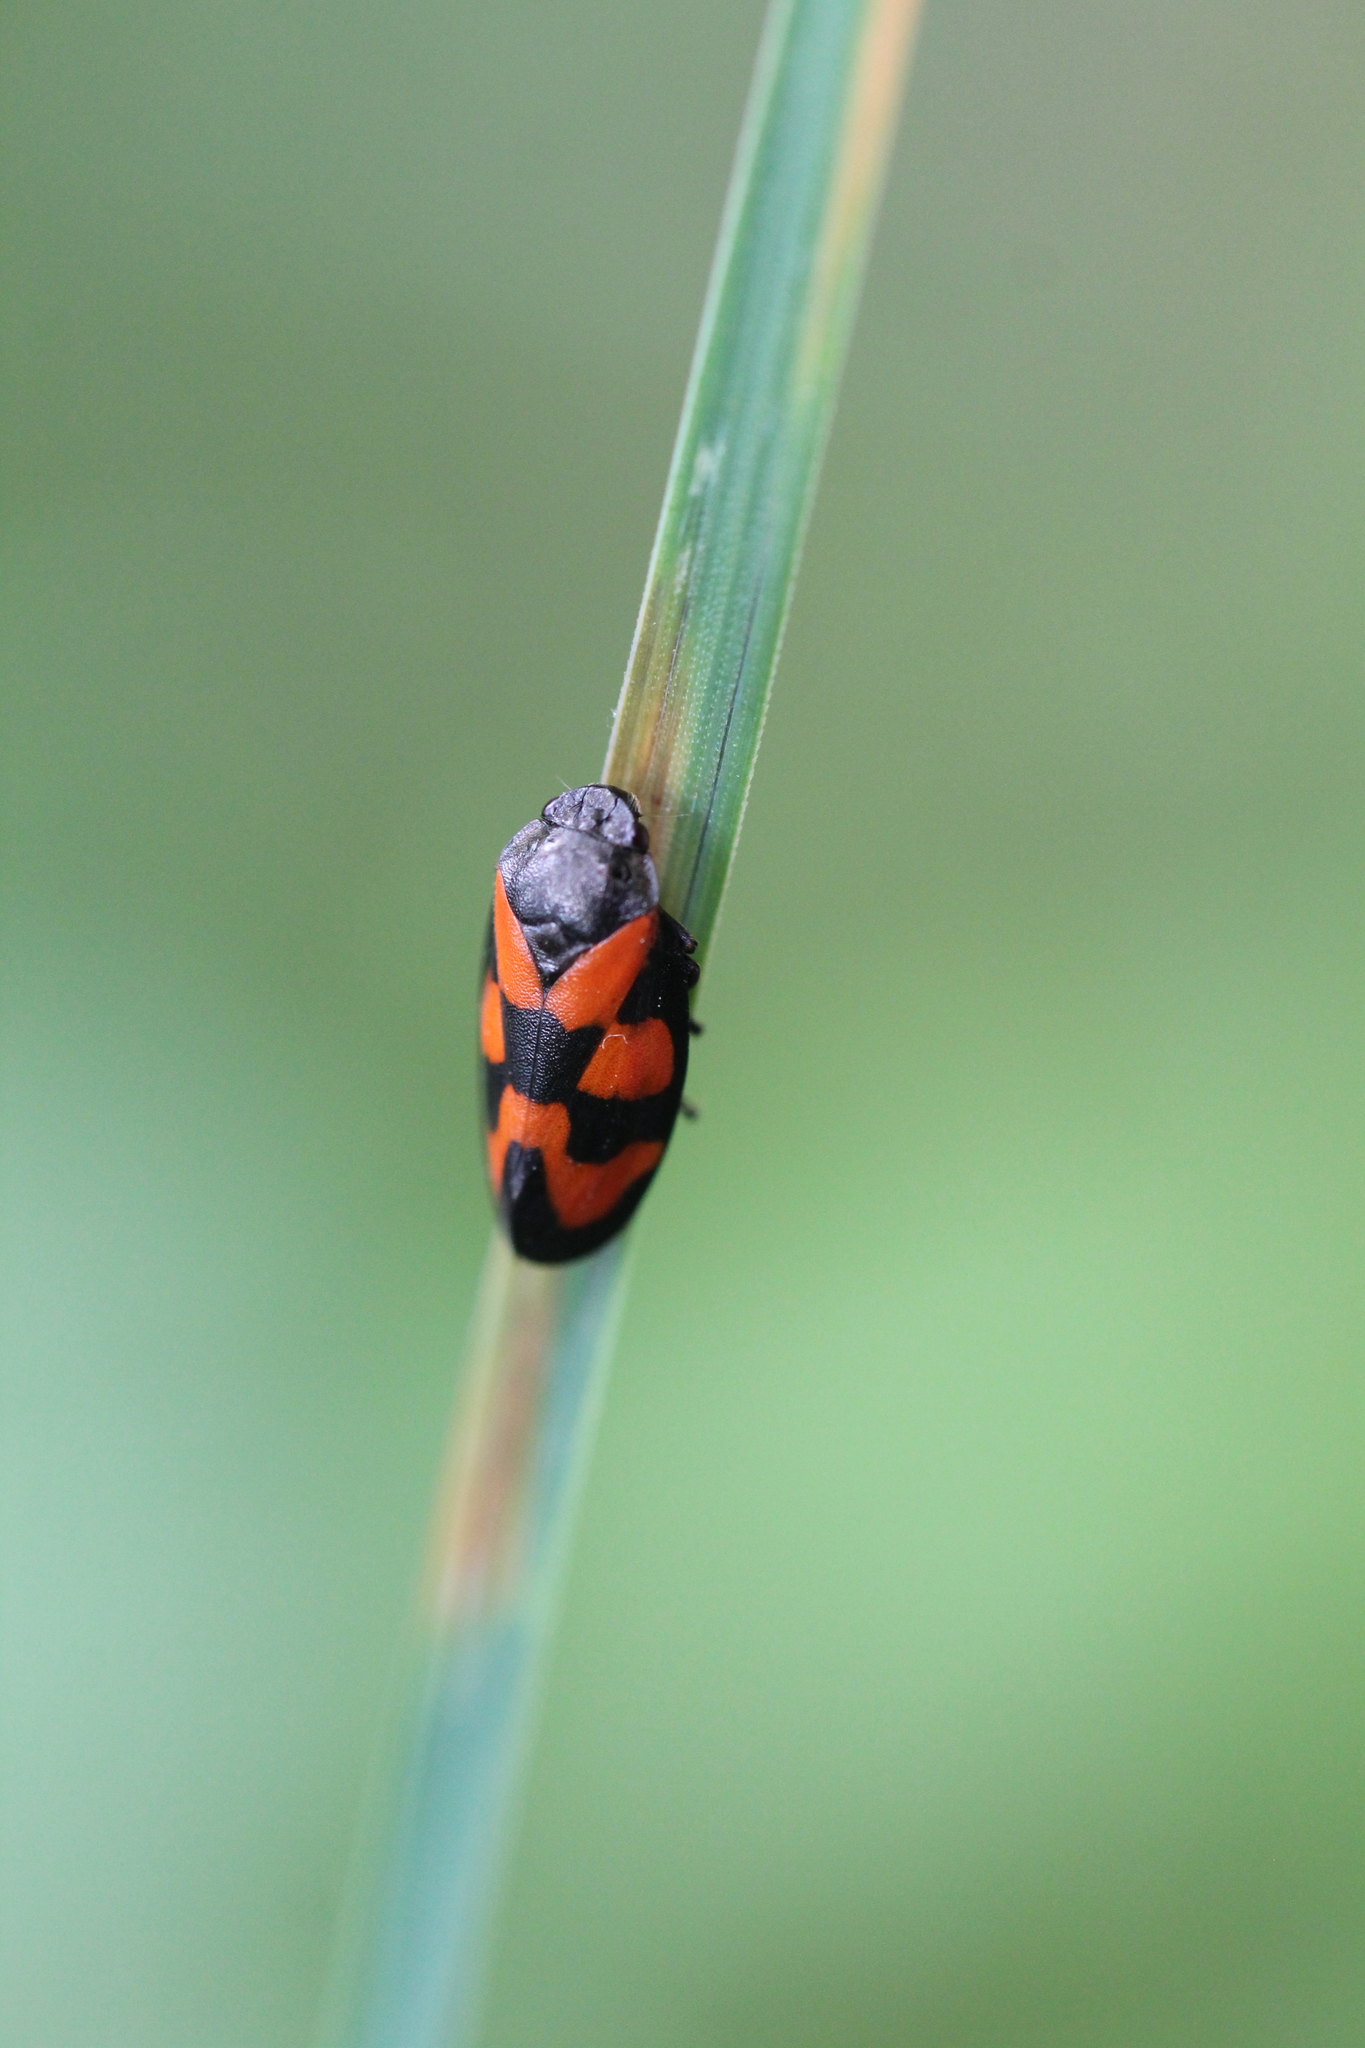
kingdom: Animalia
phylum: Arthropoda
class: Insecta
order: Hemiptera
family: Cercopidae
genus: Cercopis
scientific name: Cercopis vulnerata
